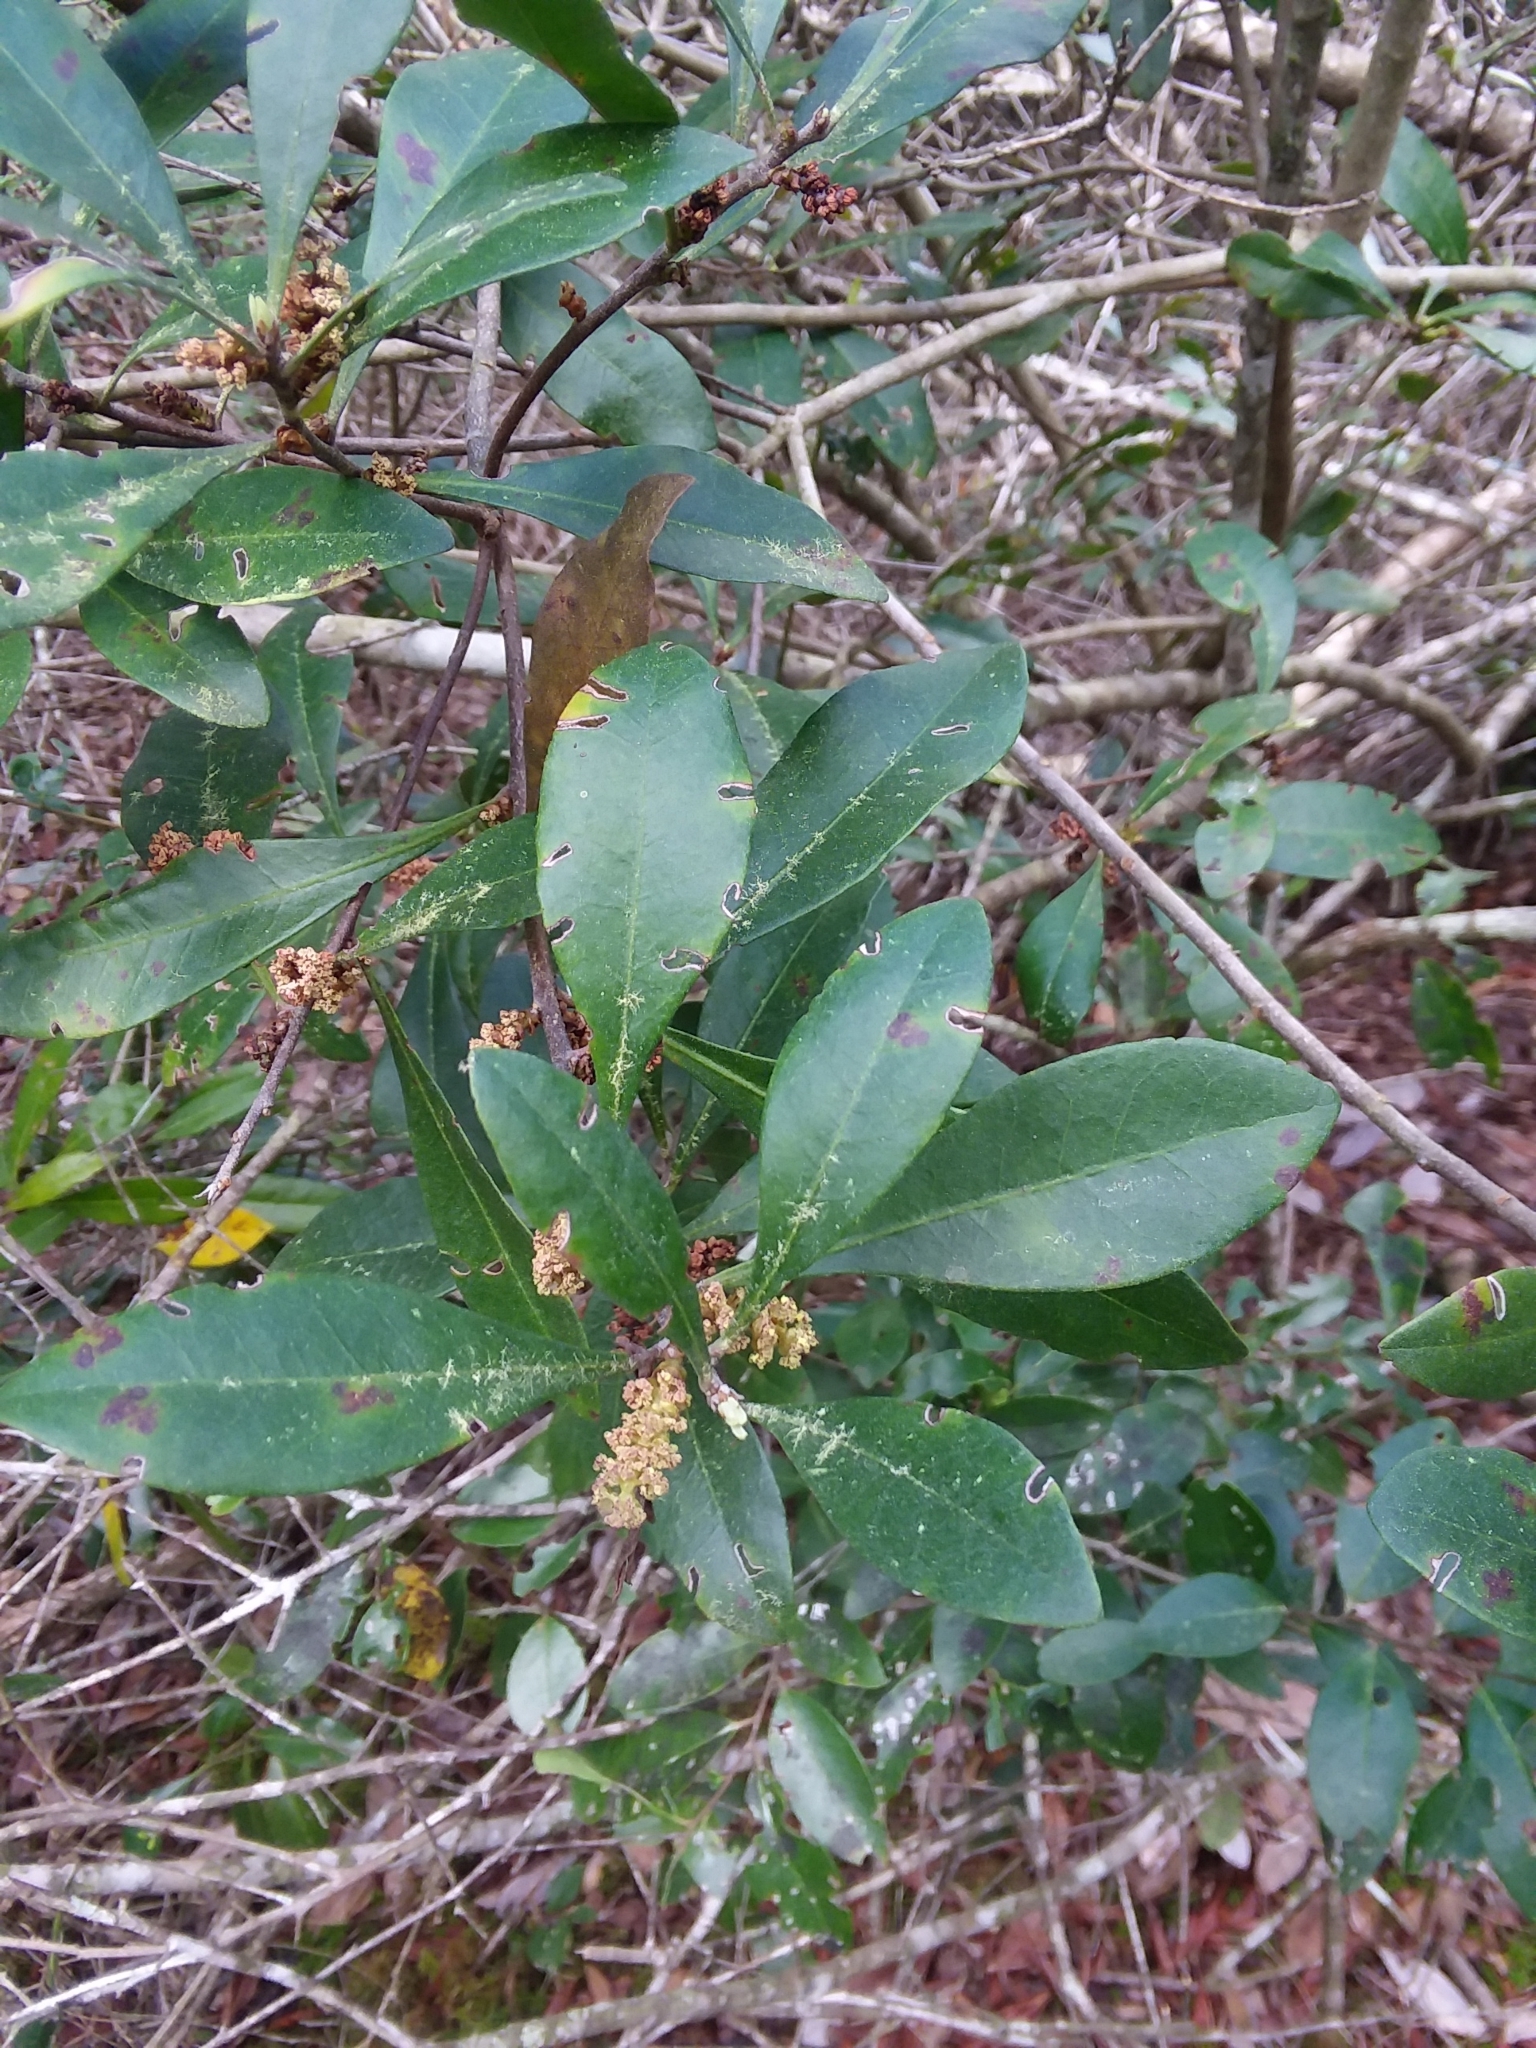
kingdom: Plantae
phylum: Tracheophyta
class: Magnoliopsida
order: Fagales
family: Myricaceae
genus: Morella
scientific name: Morella inodora
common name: Candle-berry
